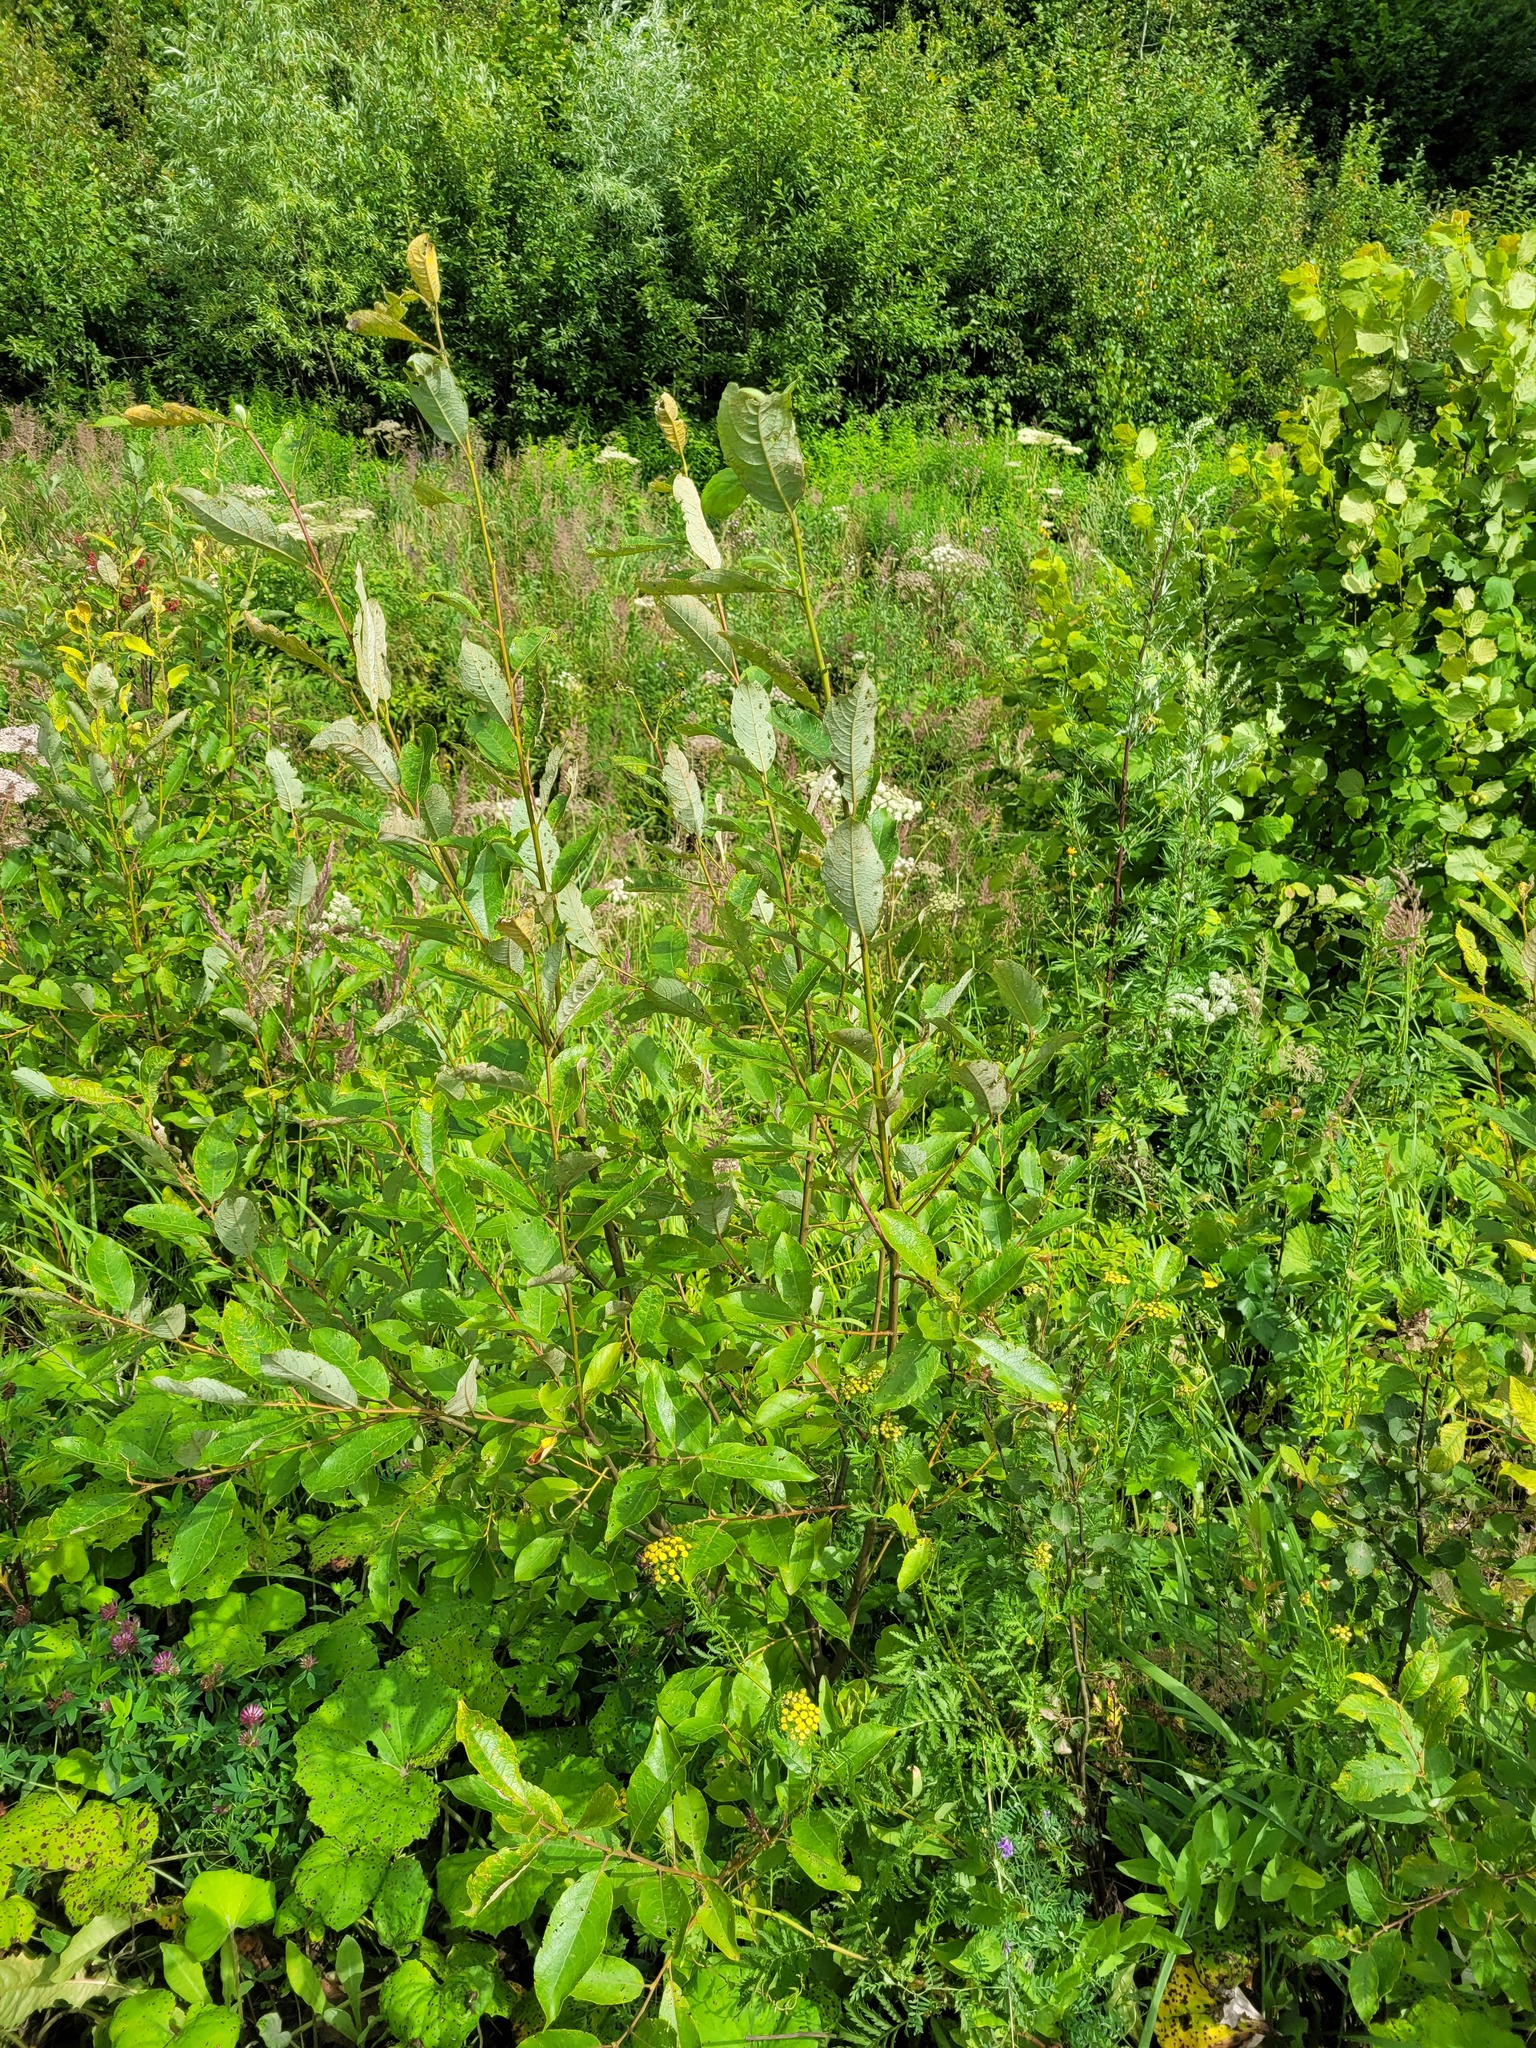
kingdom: Plantae
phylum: Tracheophyta
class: Magnoliopsida
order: Malpighiales
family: Salicaceae
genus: Salix
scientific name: Salix caprea
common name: Goat willow
